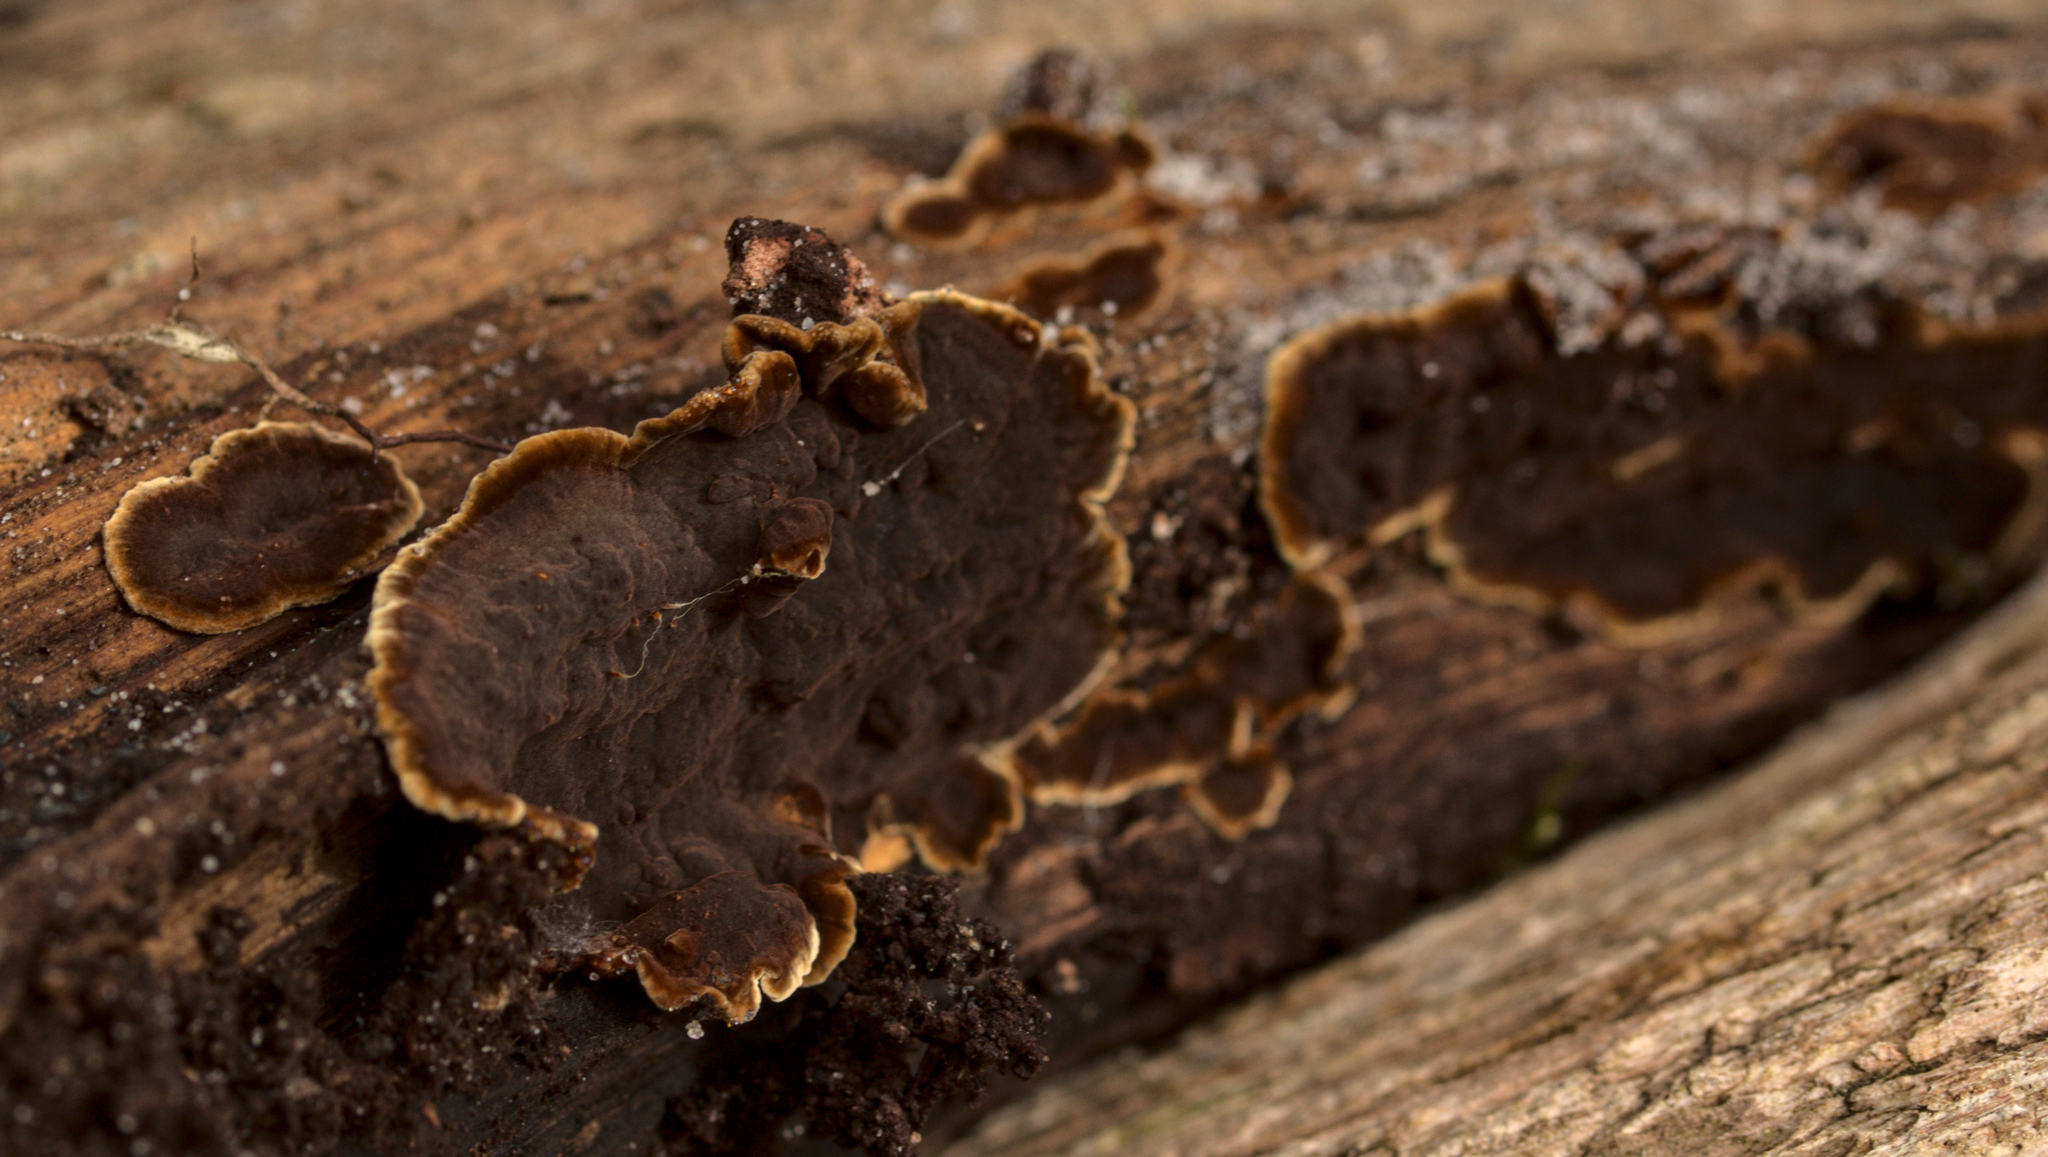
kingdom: Fungi
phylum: Basidiomycota
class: Agaricomycetes
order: Hymenochaetales
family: Hymenochaetaceae
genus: Hymenochaete
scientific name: Hymenochaete rubiginosa
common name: Oak curtain crust
